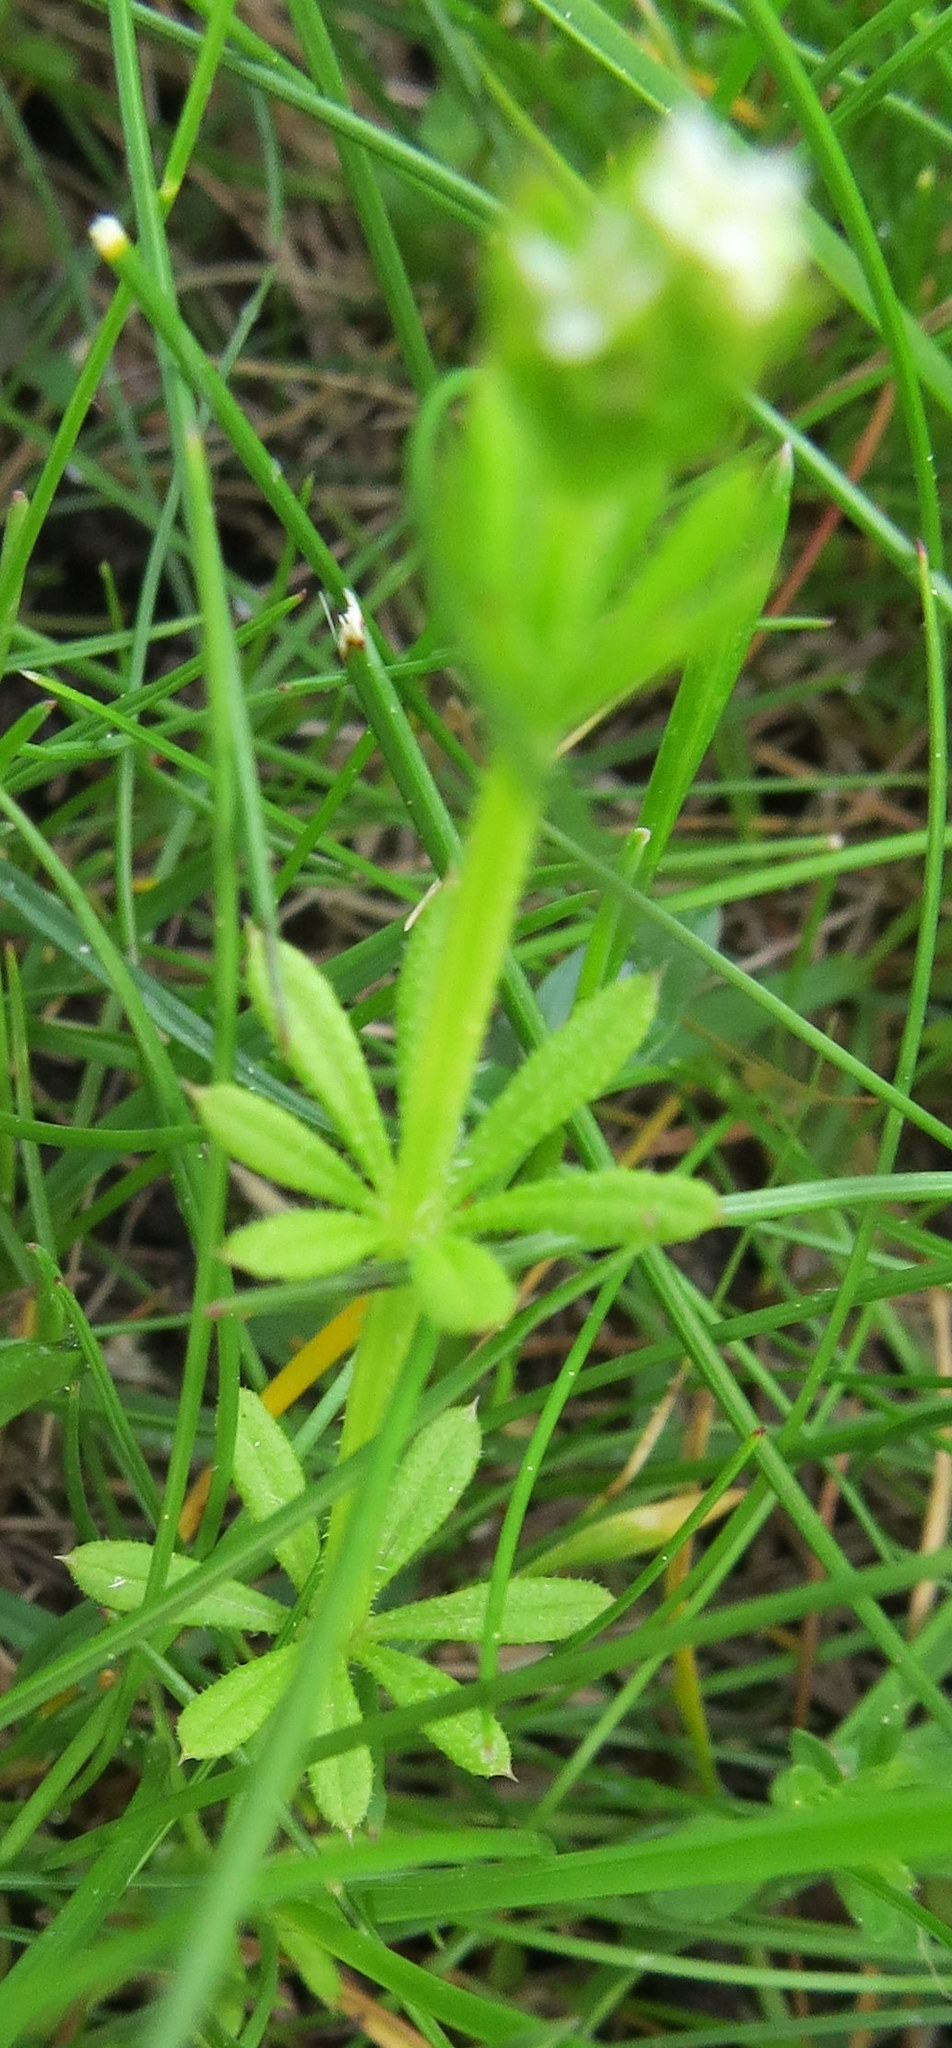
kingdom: Plantae
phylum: Tracheophyta
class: Magnoliopsida
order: Gentianales
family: Rubiaceae
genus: Galium
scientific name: Galium aparine
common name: Cleavers
